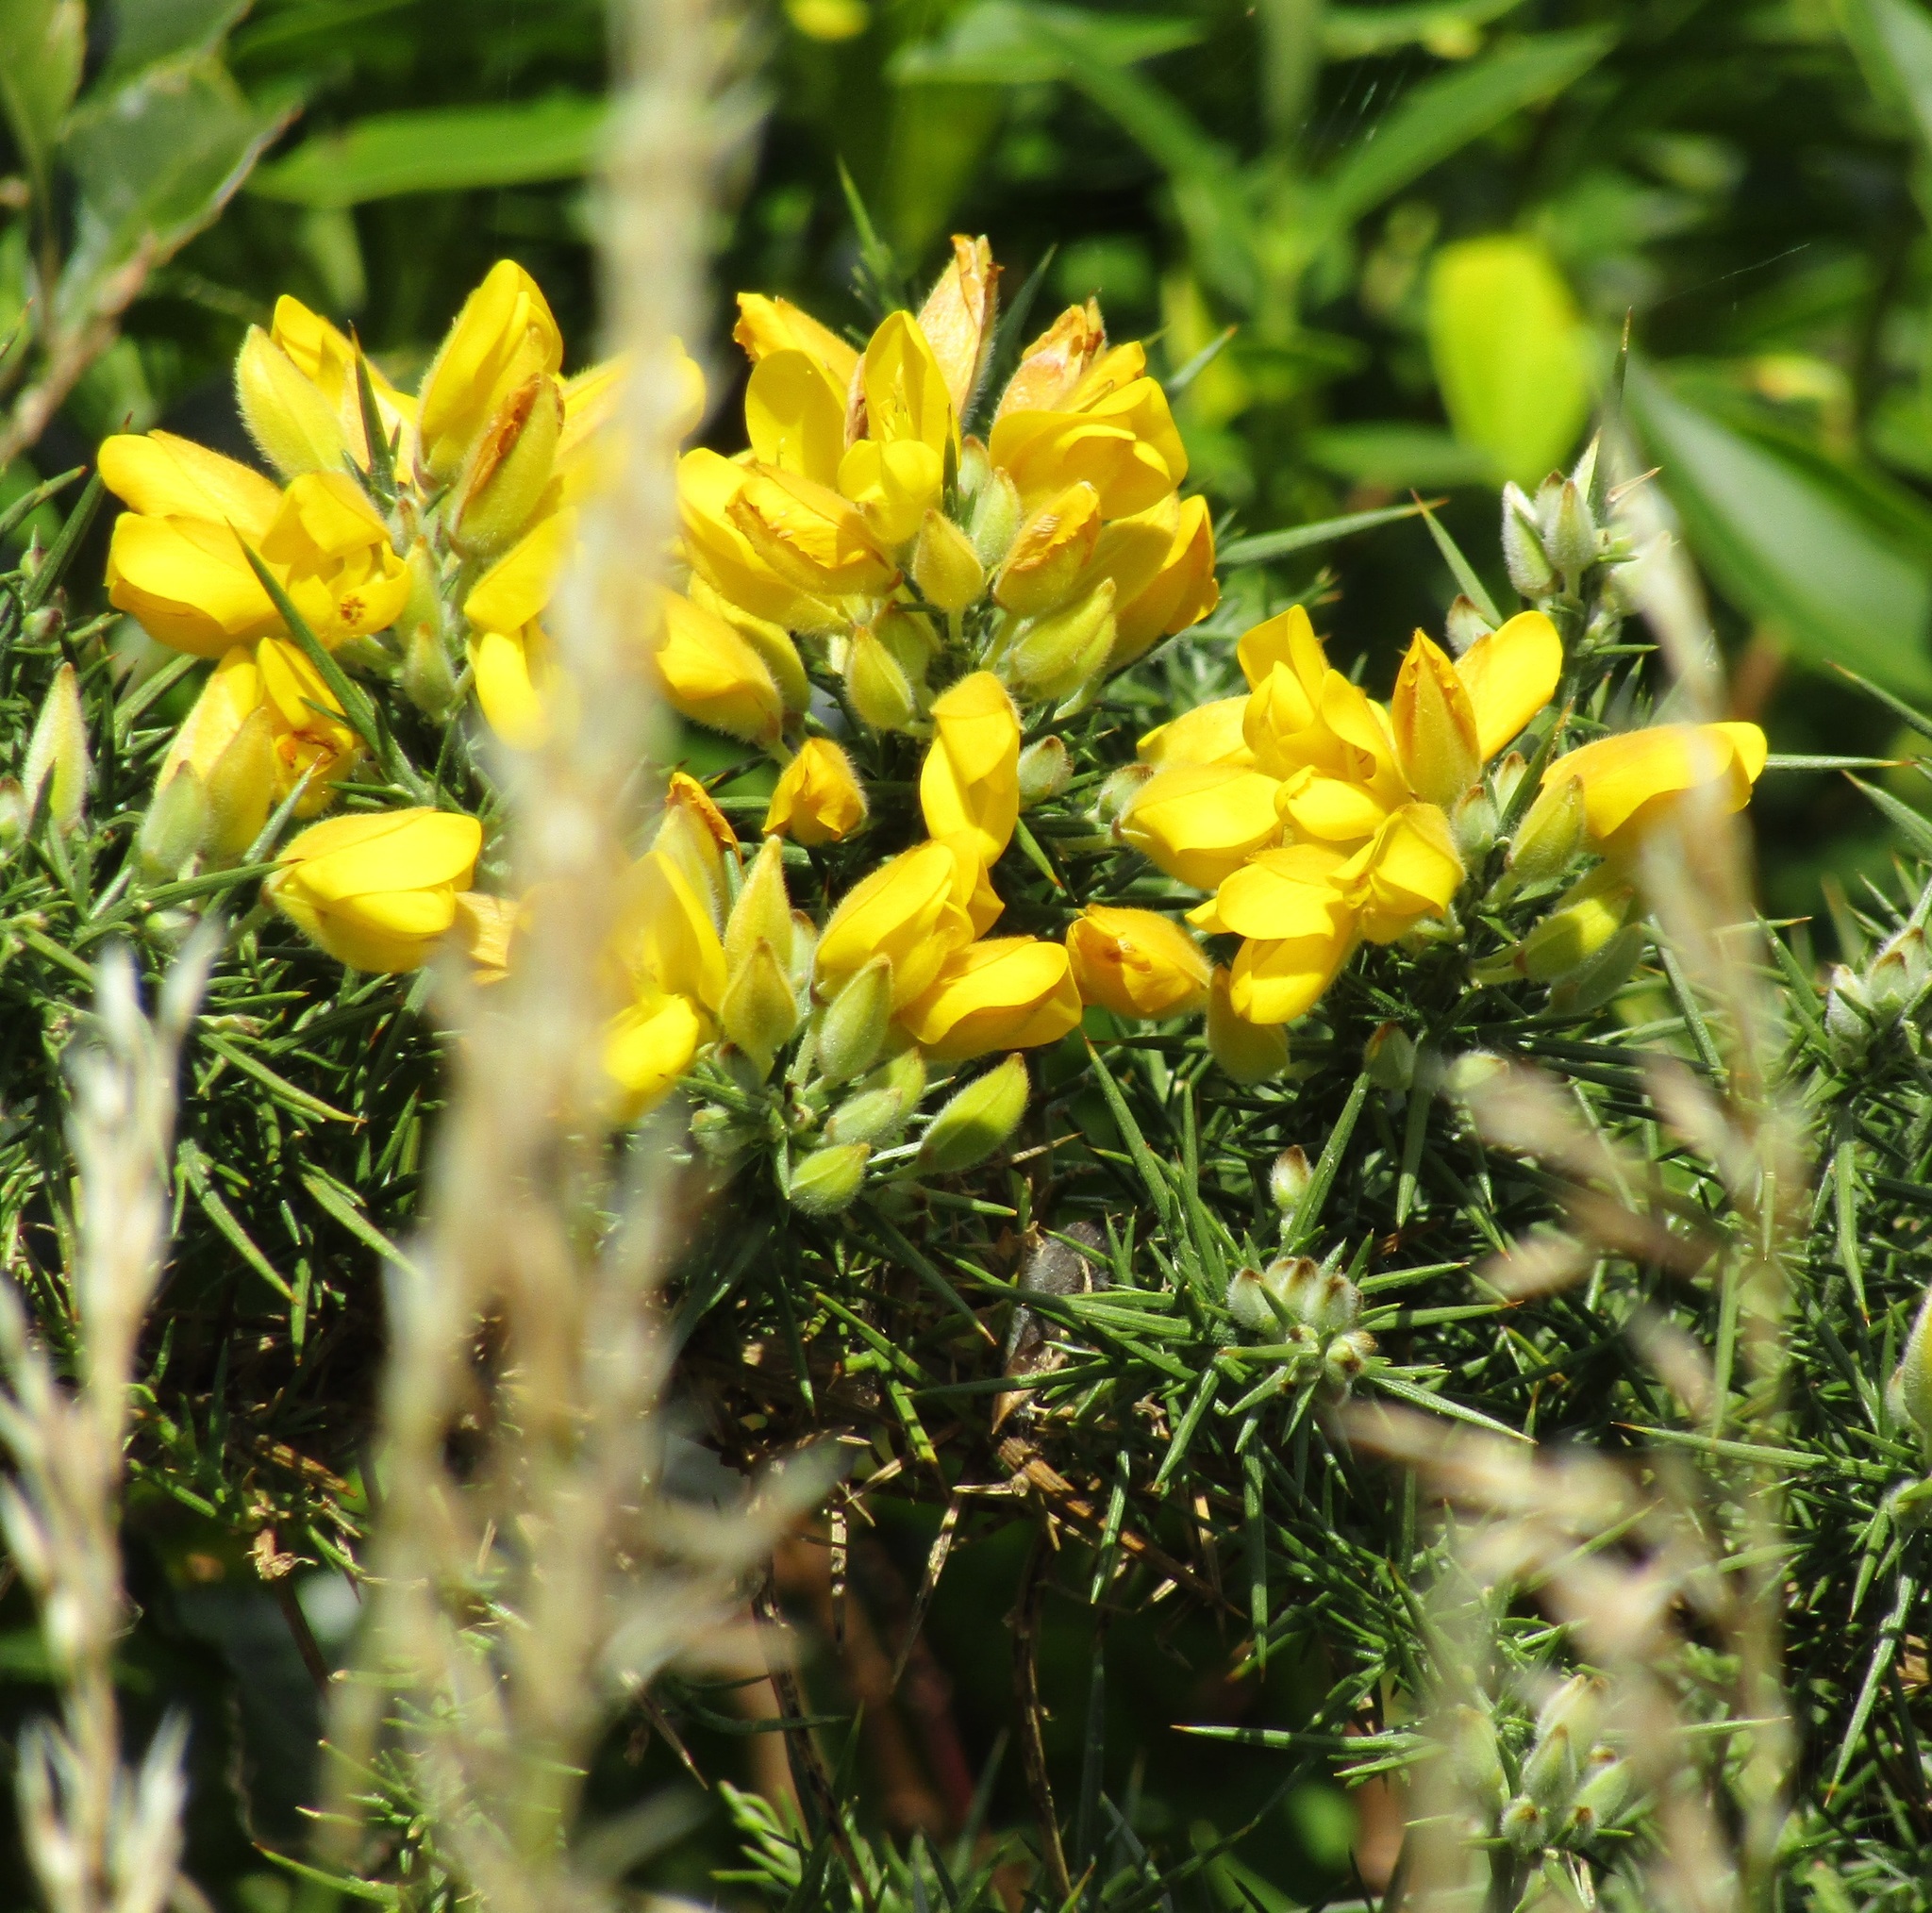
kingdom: Plantae
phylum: Tracheophyta
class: Magnoliopsida
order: Fabales
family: Fabaceae
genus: Ulex
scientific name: Ulex europaeus
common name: Common gorse
